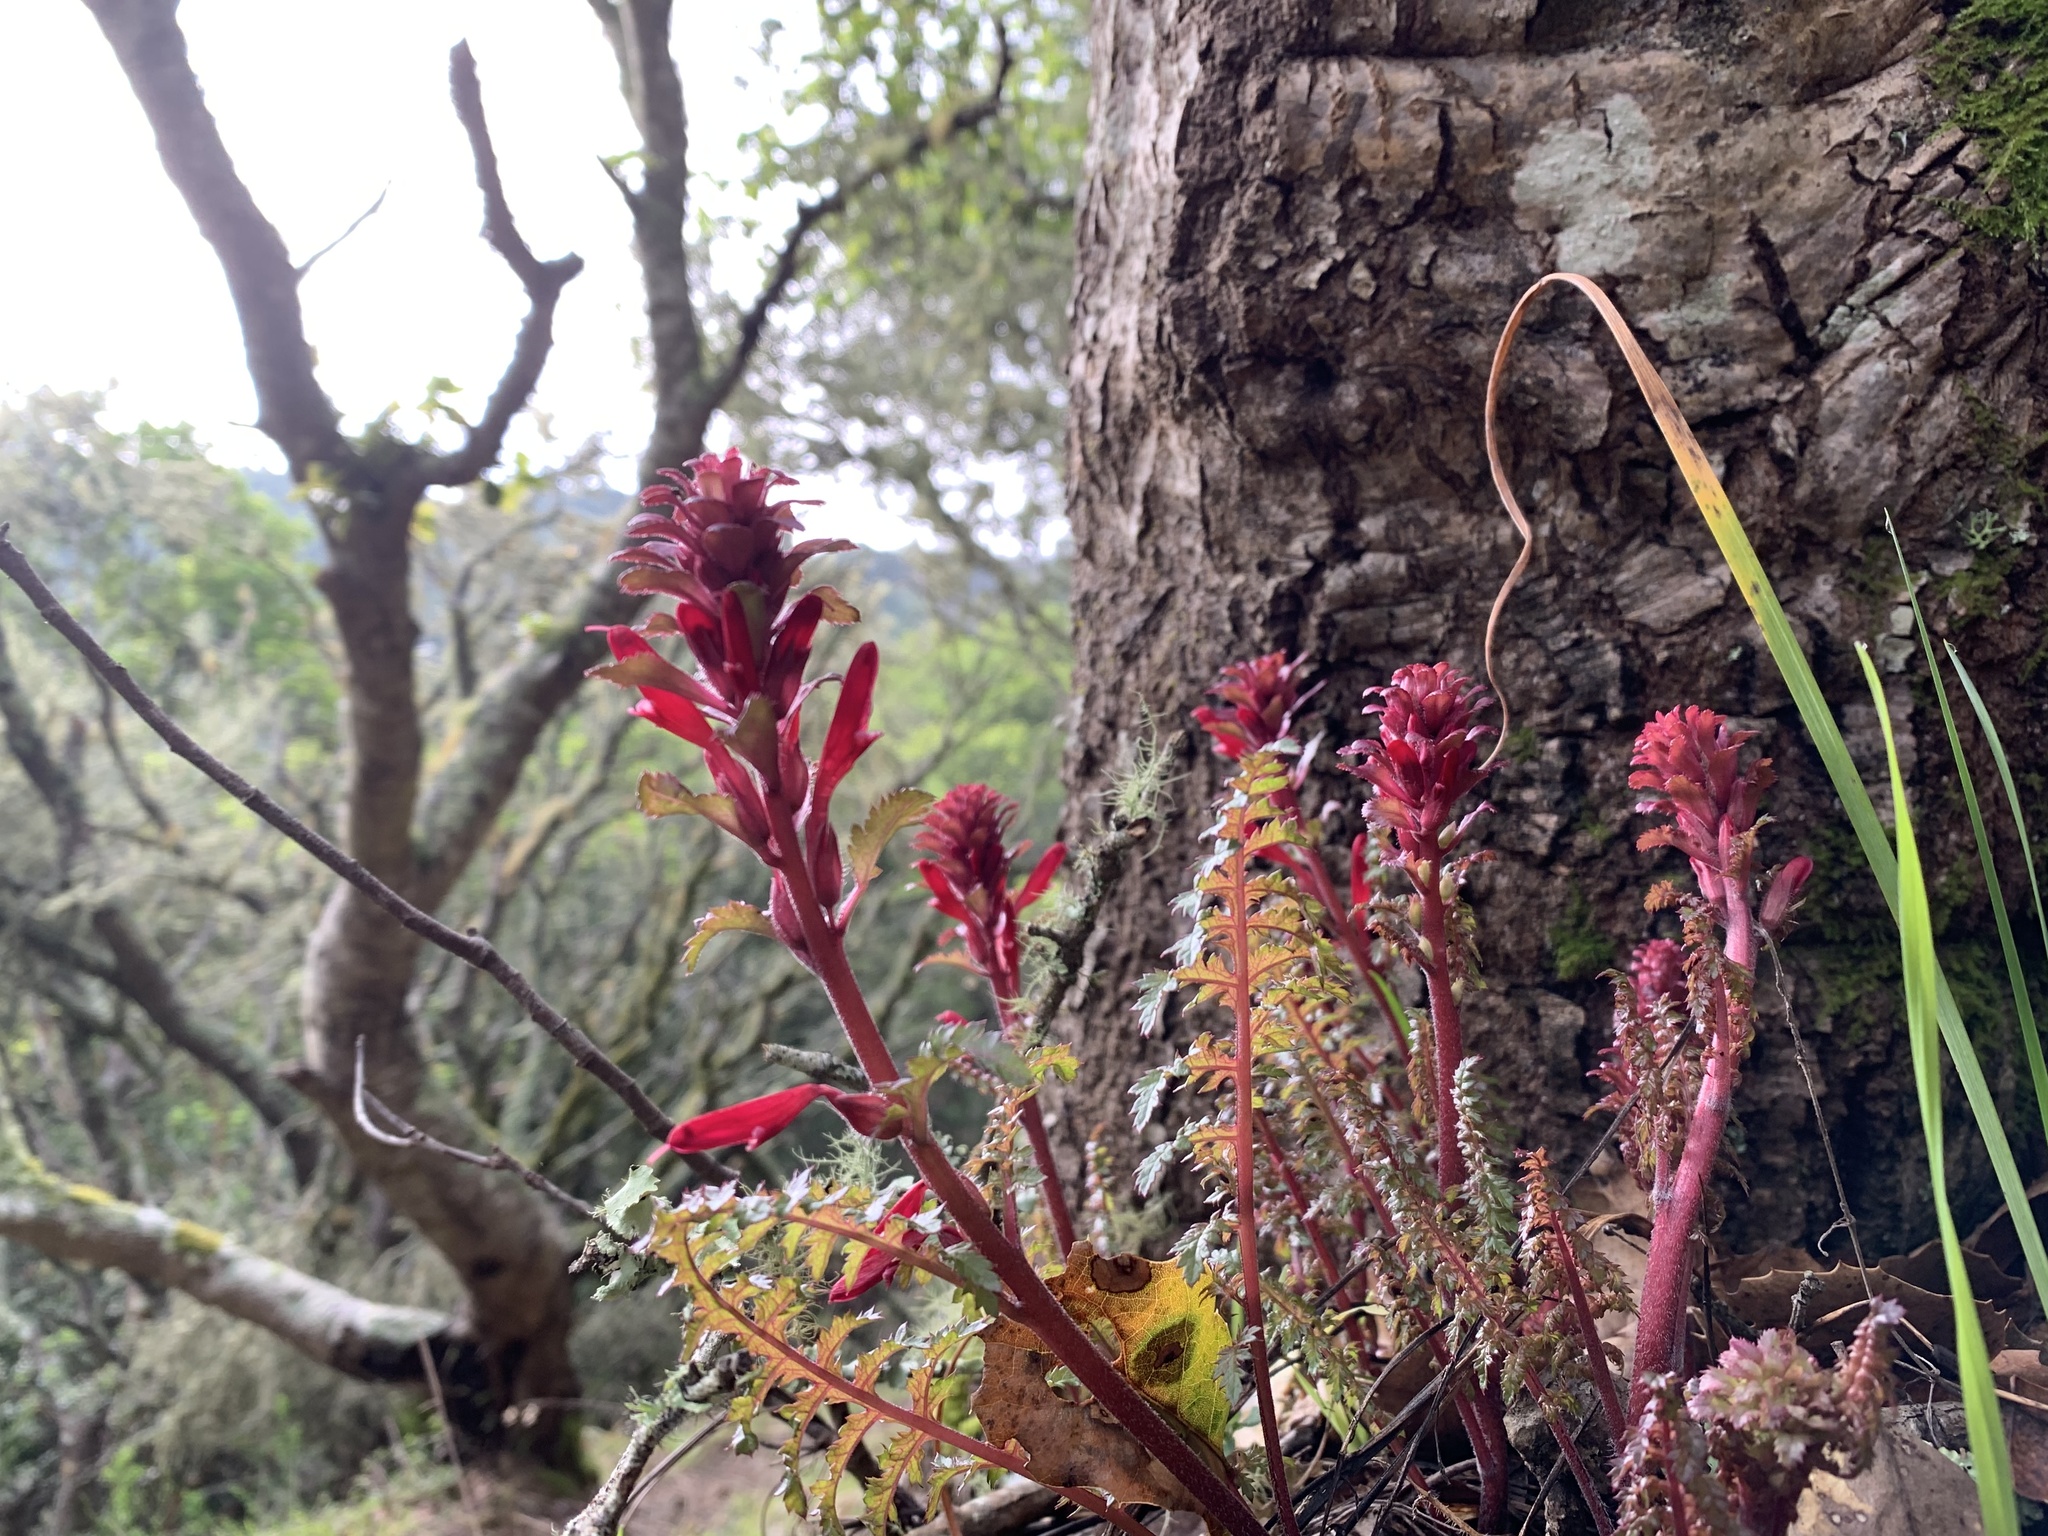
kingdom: Plantae
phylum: Tracheophyta
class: Magnoliopsida
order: Lamiales
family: Orobanchaceae
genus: Pedicularis
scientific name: Pedicularis densiflora
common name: Indian warrior
